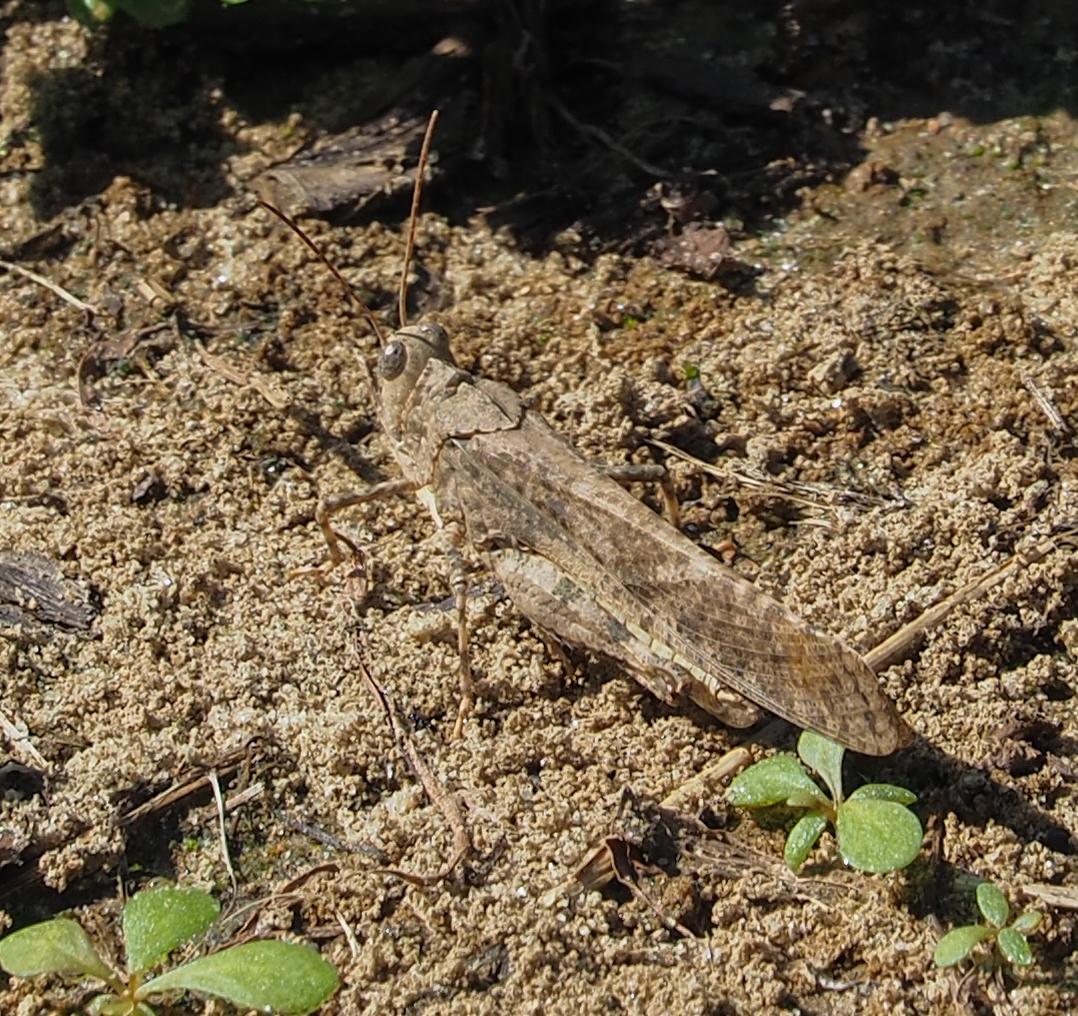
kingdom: Animalia
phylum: Arthropoda
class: Insecta
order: Orthoptera
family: Acrididae
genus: Dissosteira
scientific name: Dissosteira carolina
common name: Carolina grasshopper
